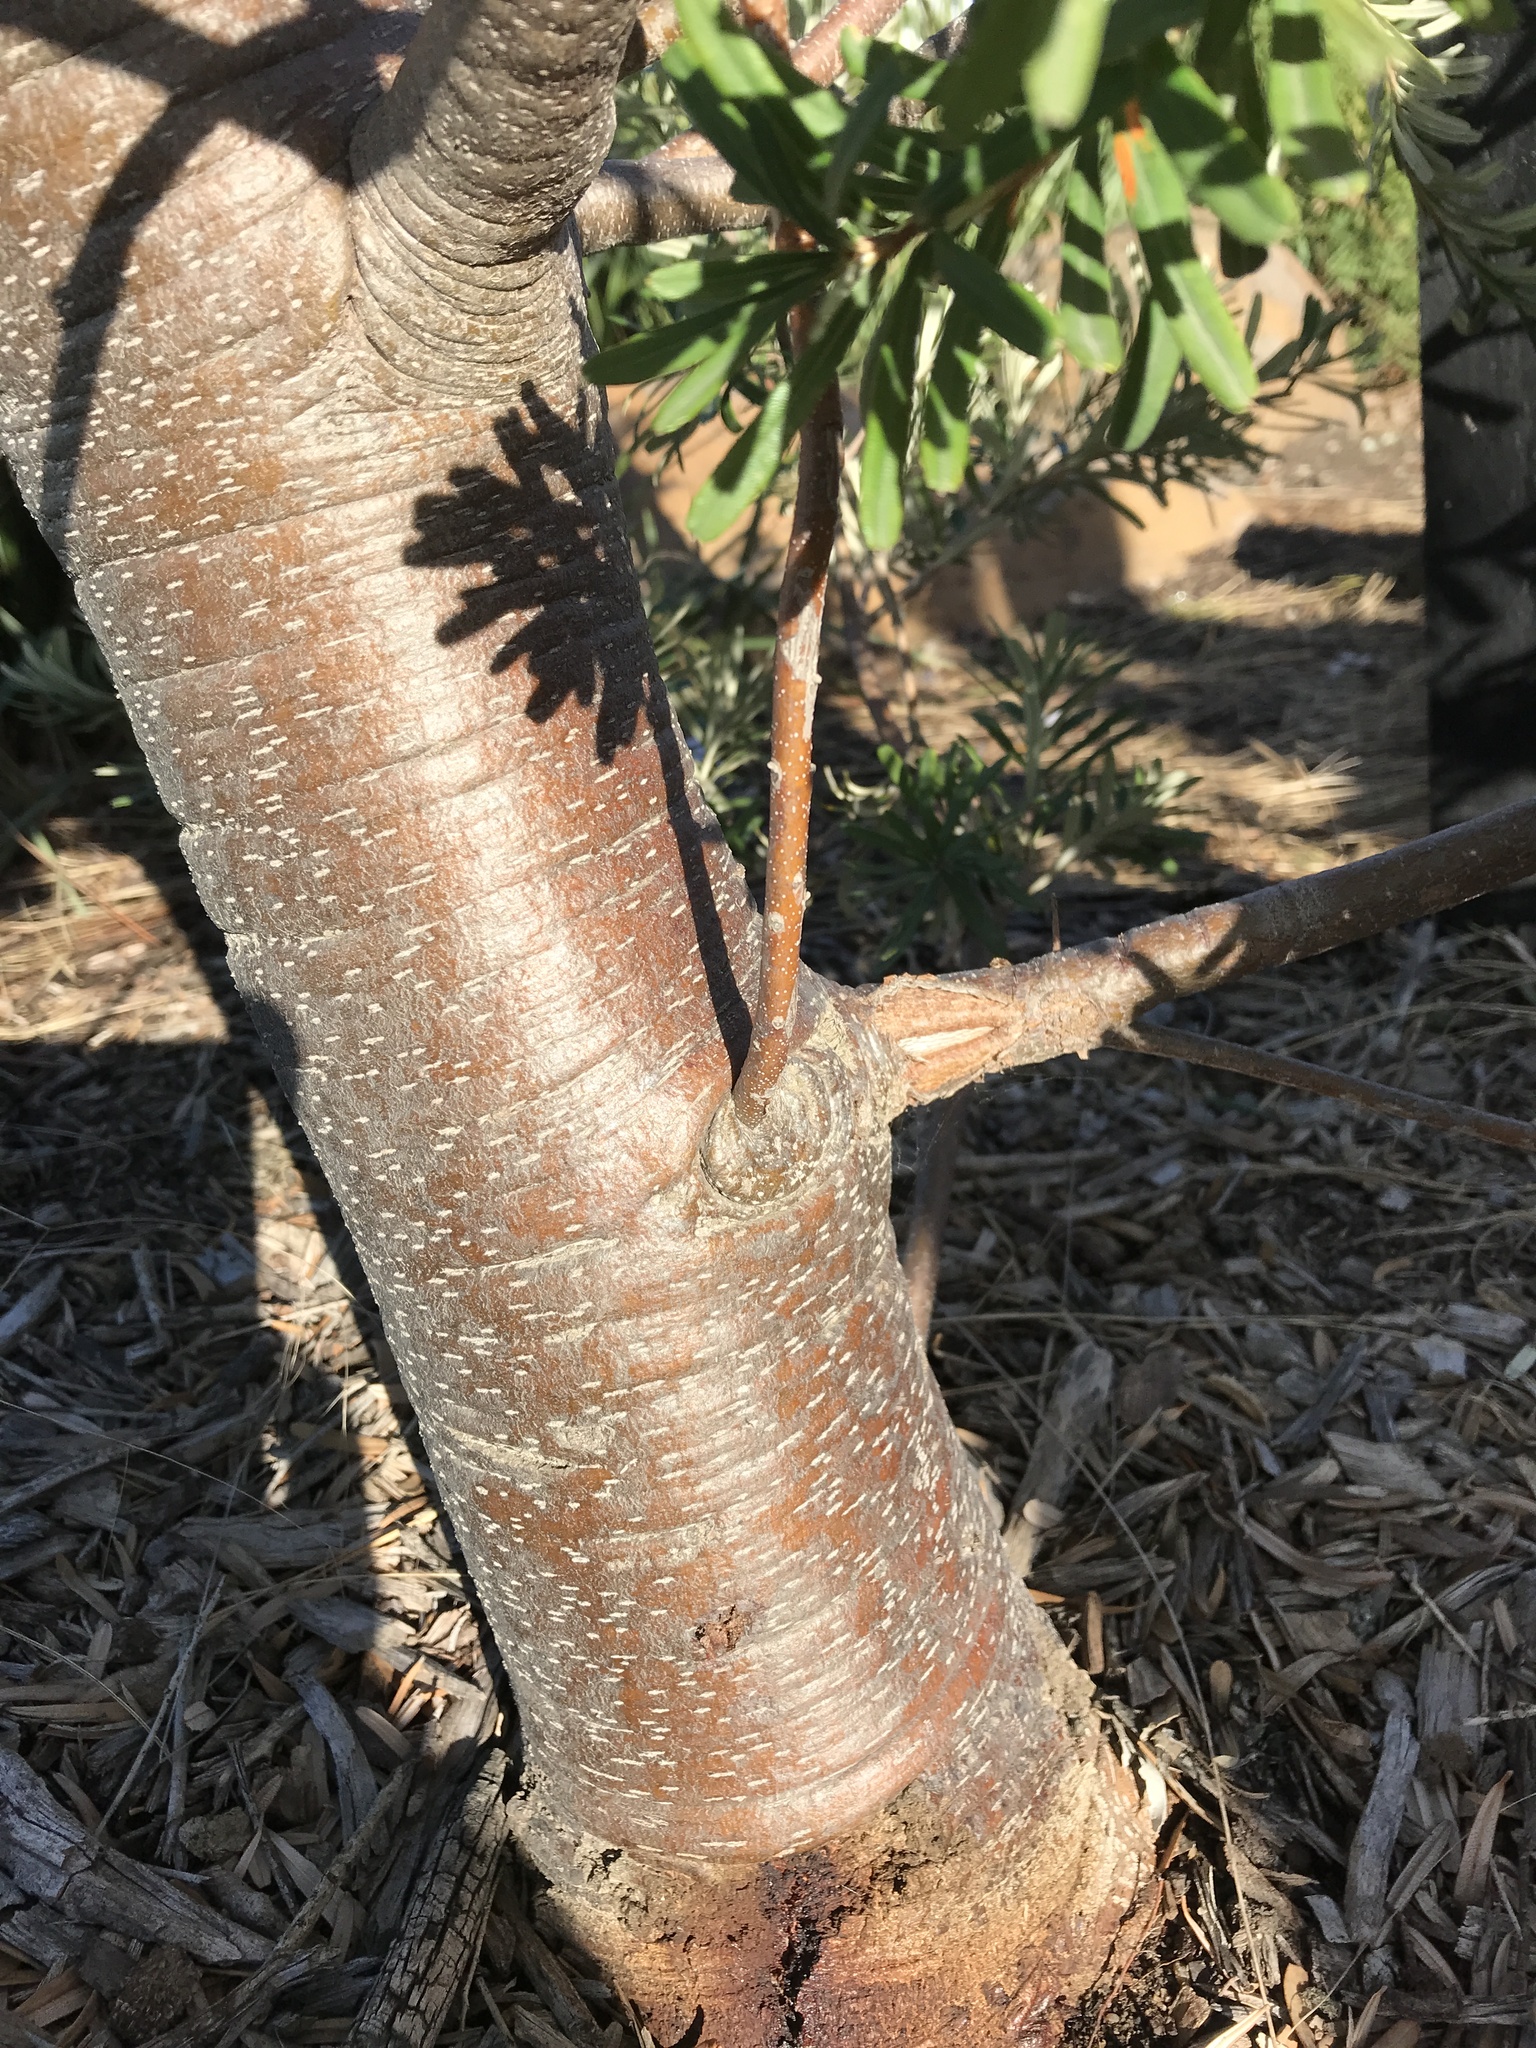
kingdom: Plantae
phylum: Tracheophyta
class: Magnoliopsida
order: Proteales
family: Proteaceae
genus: Banksia
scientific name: Banksia marginata
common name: Silver banksia
